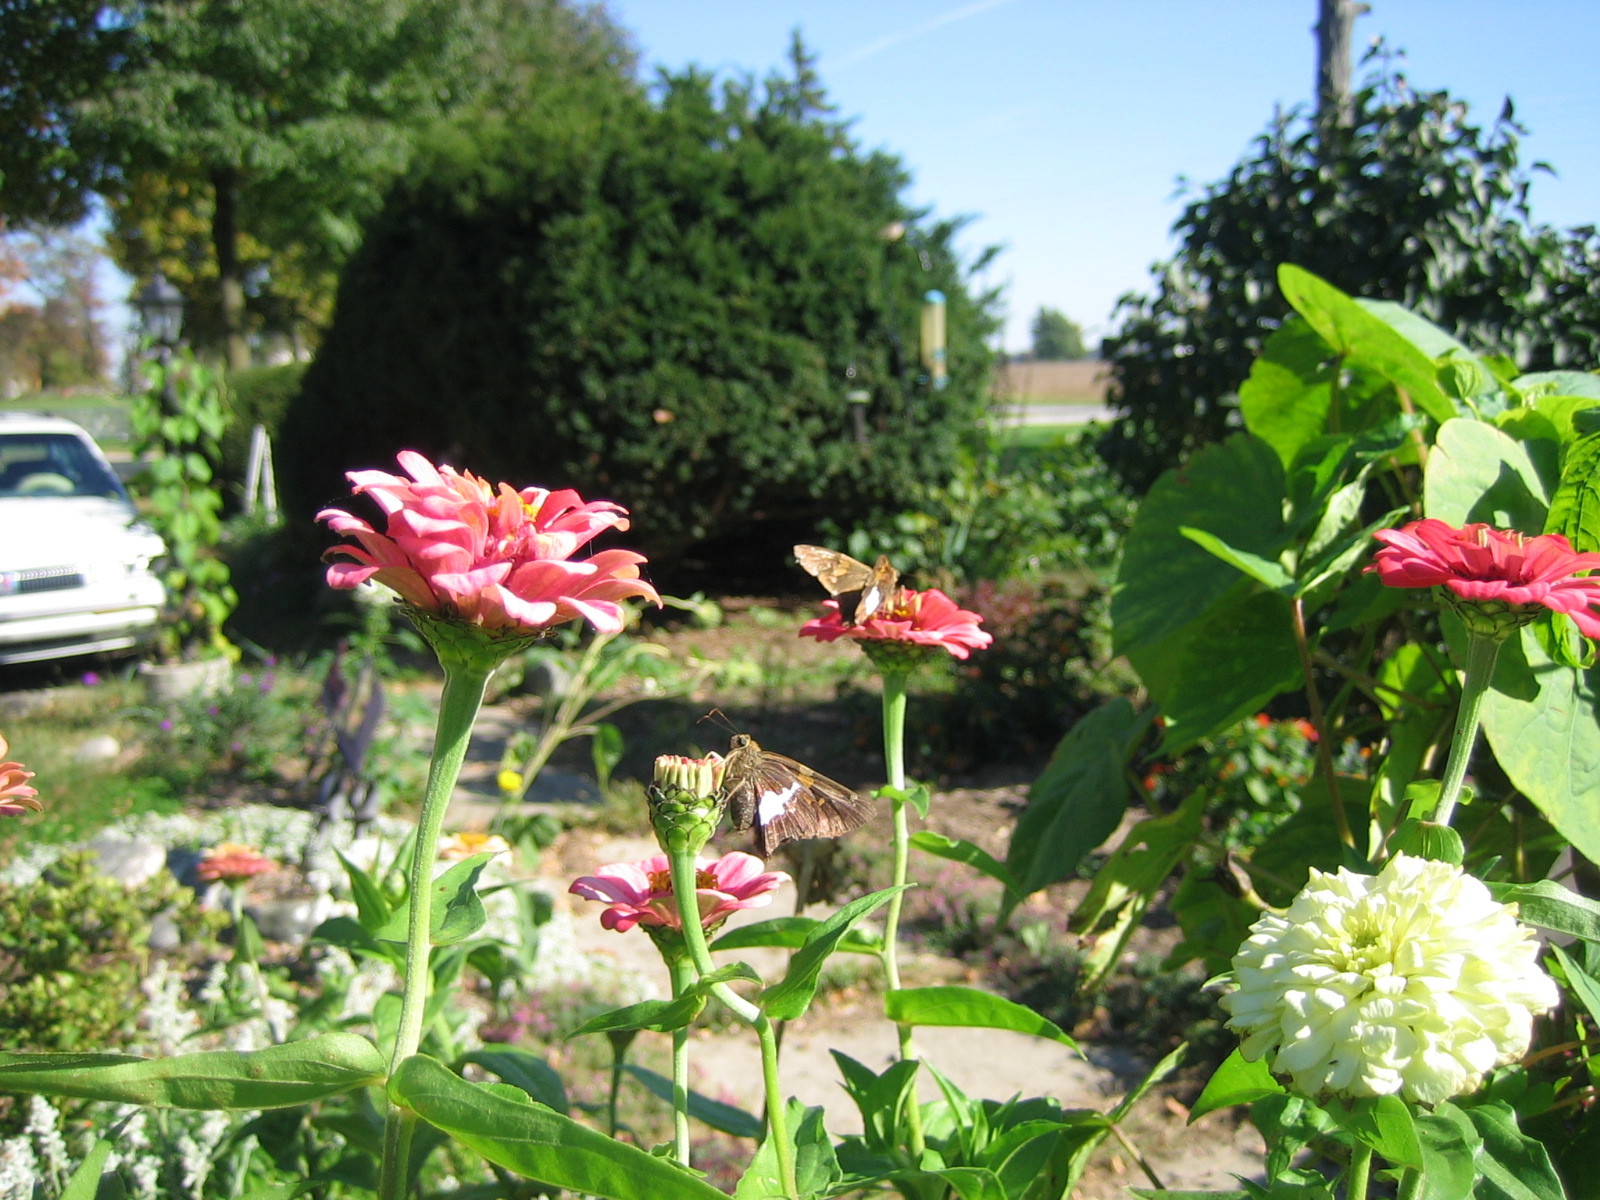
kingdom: Animalia
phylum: Arthropoda
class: Insecta
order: Lepidoptera
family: Hesperiidae
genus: Epargyreus
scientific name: Epargyreus clarus
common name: Silver-spotted skipper
